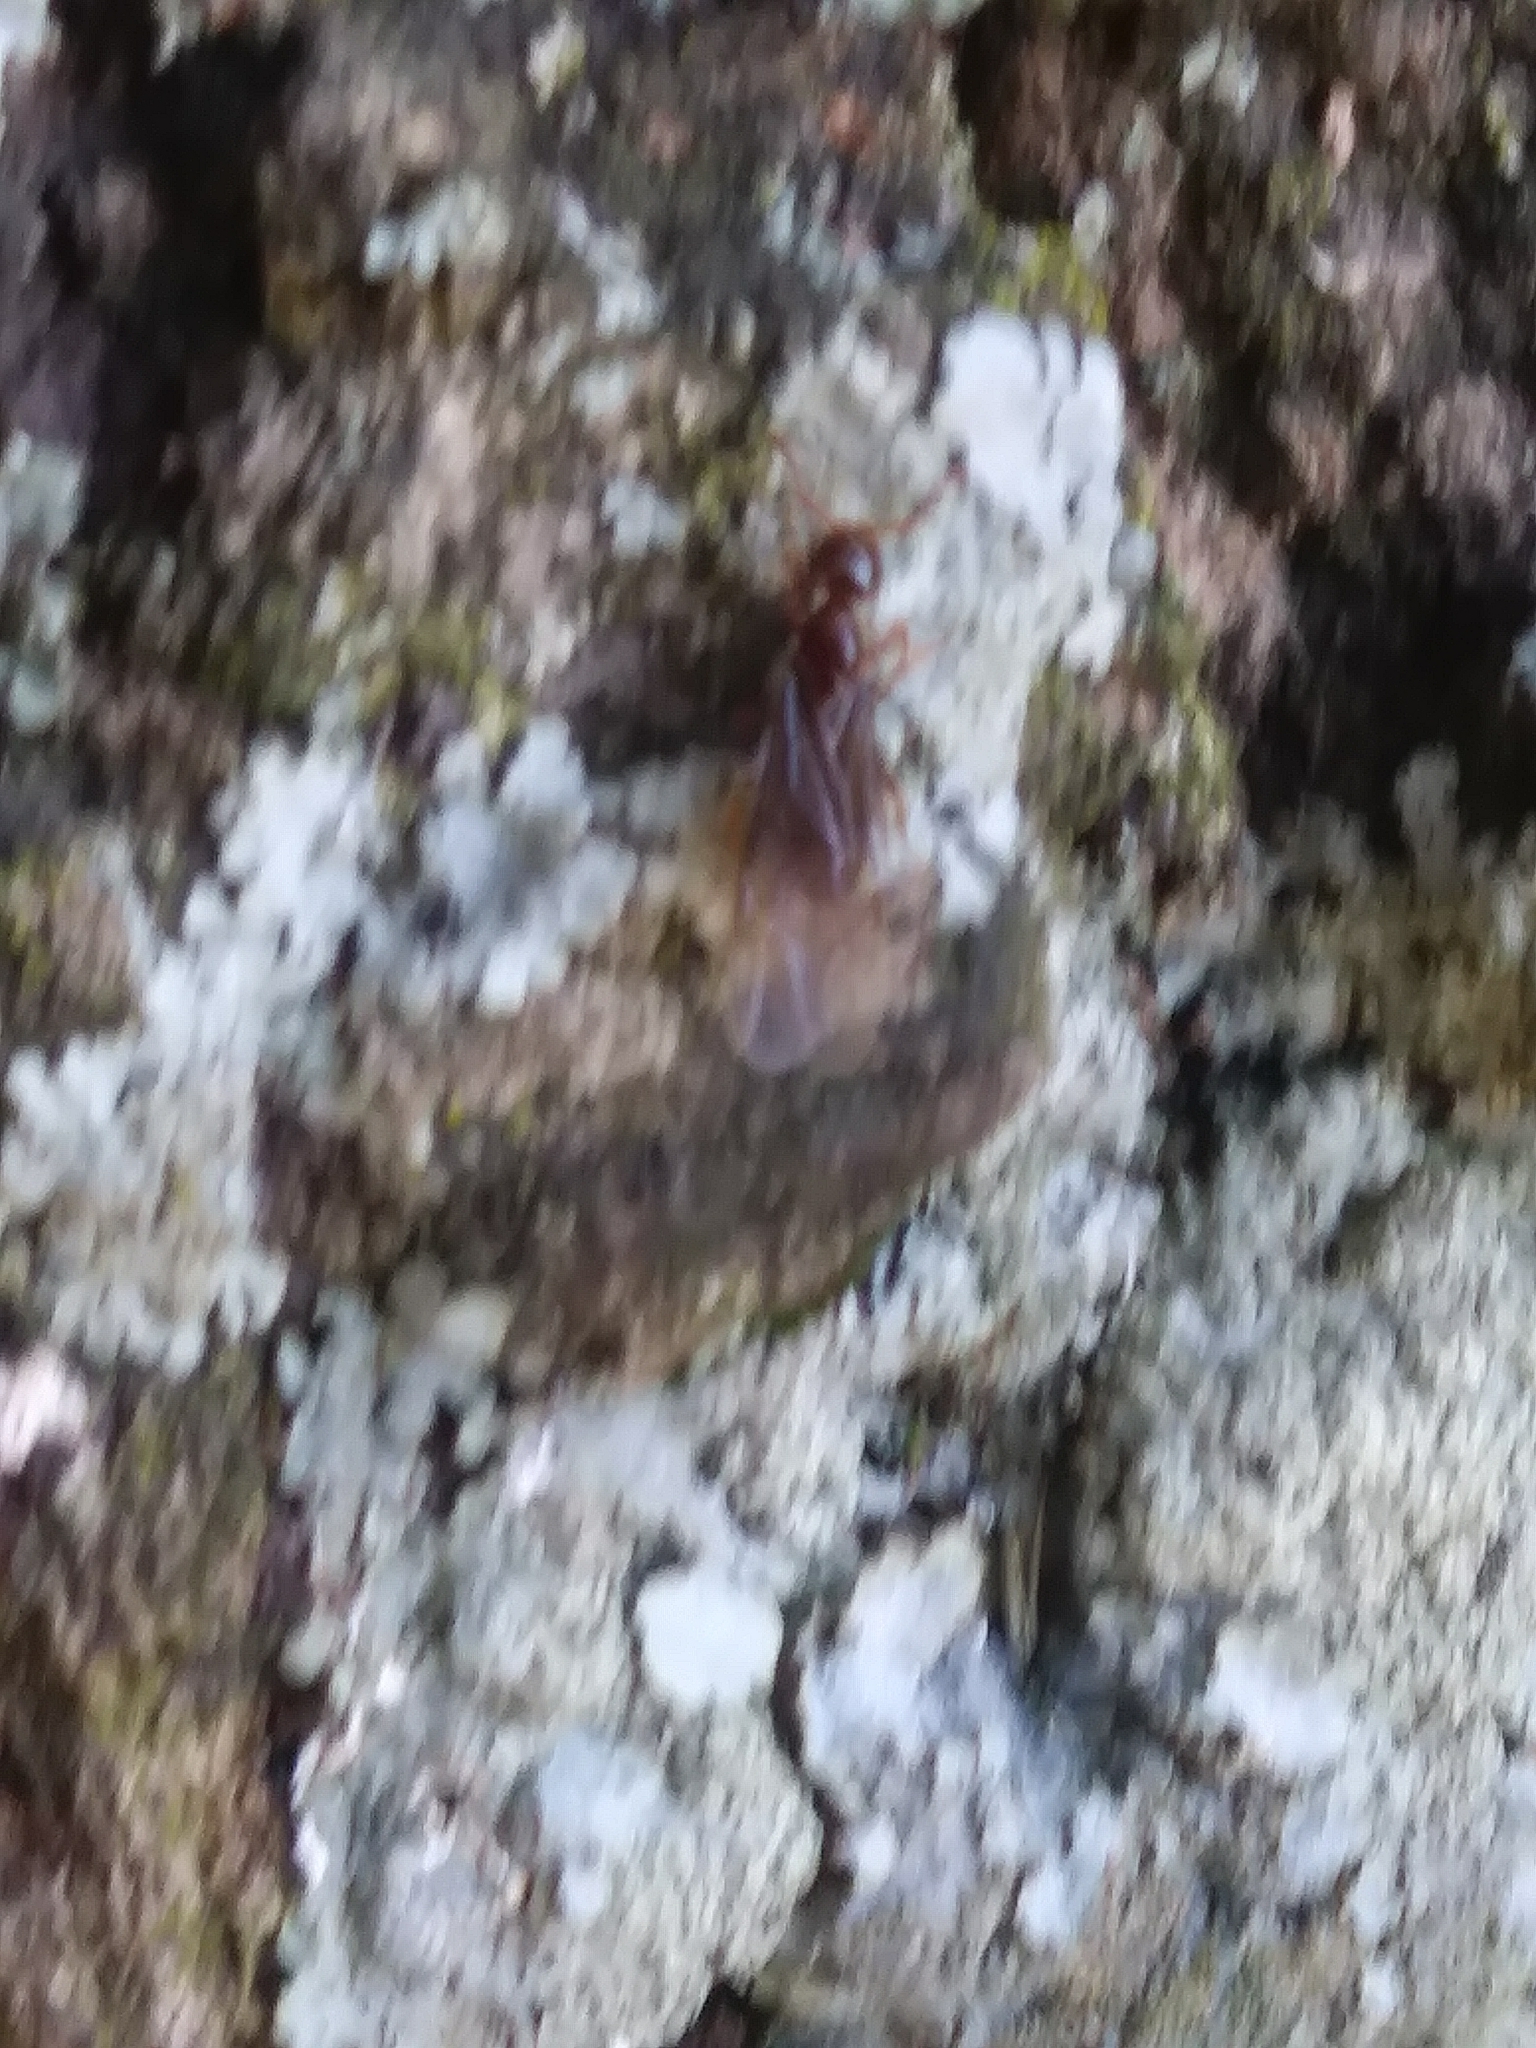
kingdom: Animalia
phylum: Arthropoda
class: Insecta
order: Hymenoptera
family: Formicidae
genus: Lasius
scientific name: Lasius claviger
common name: Common citronella ant
